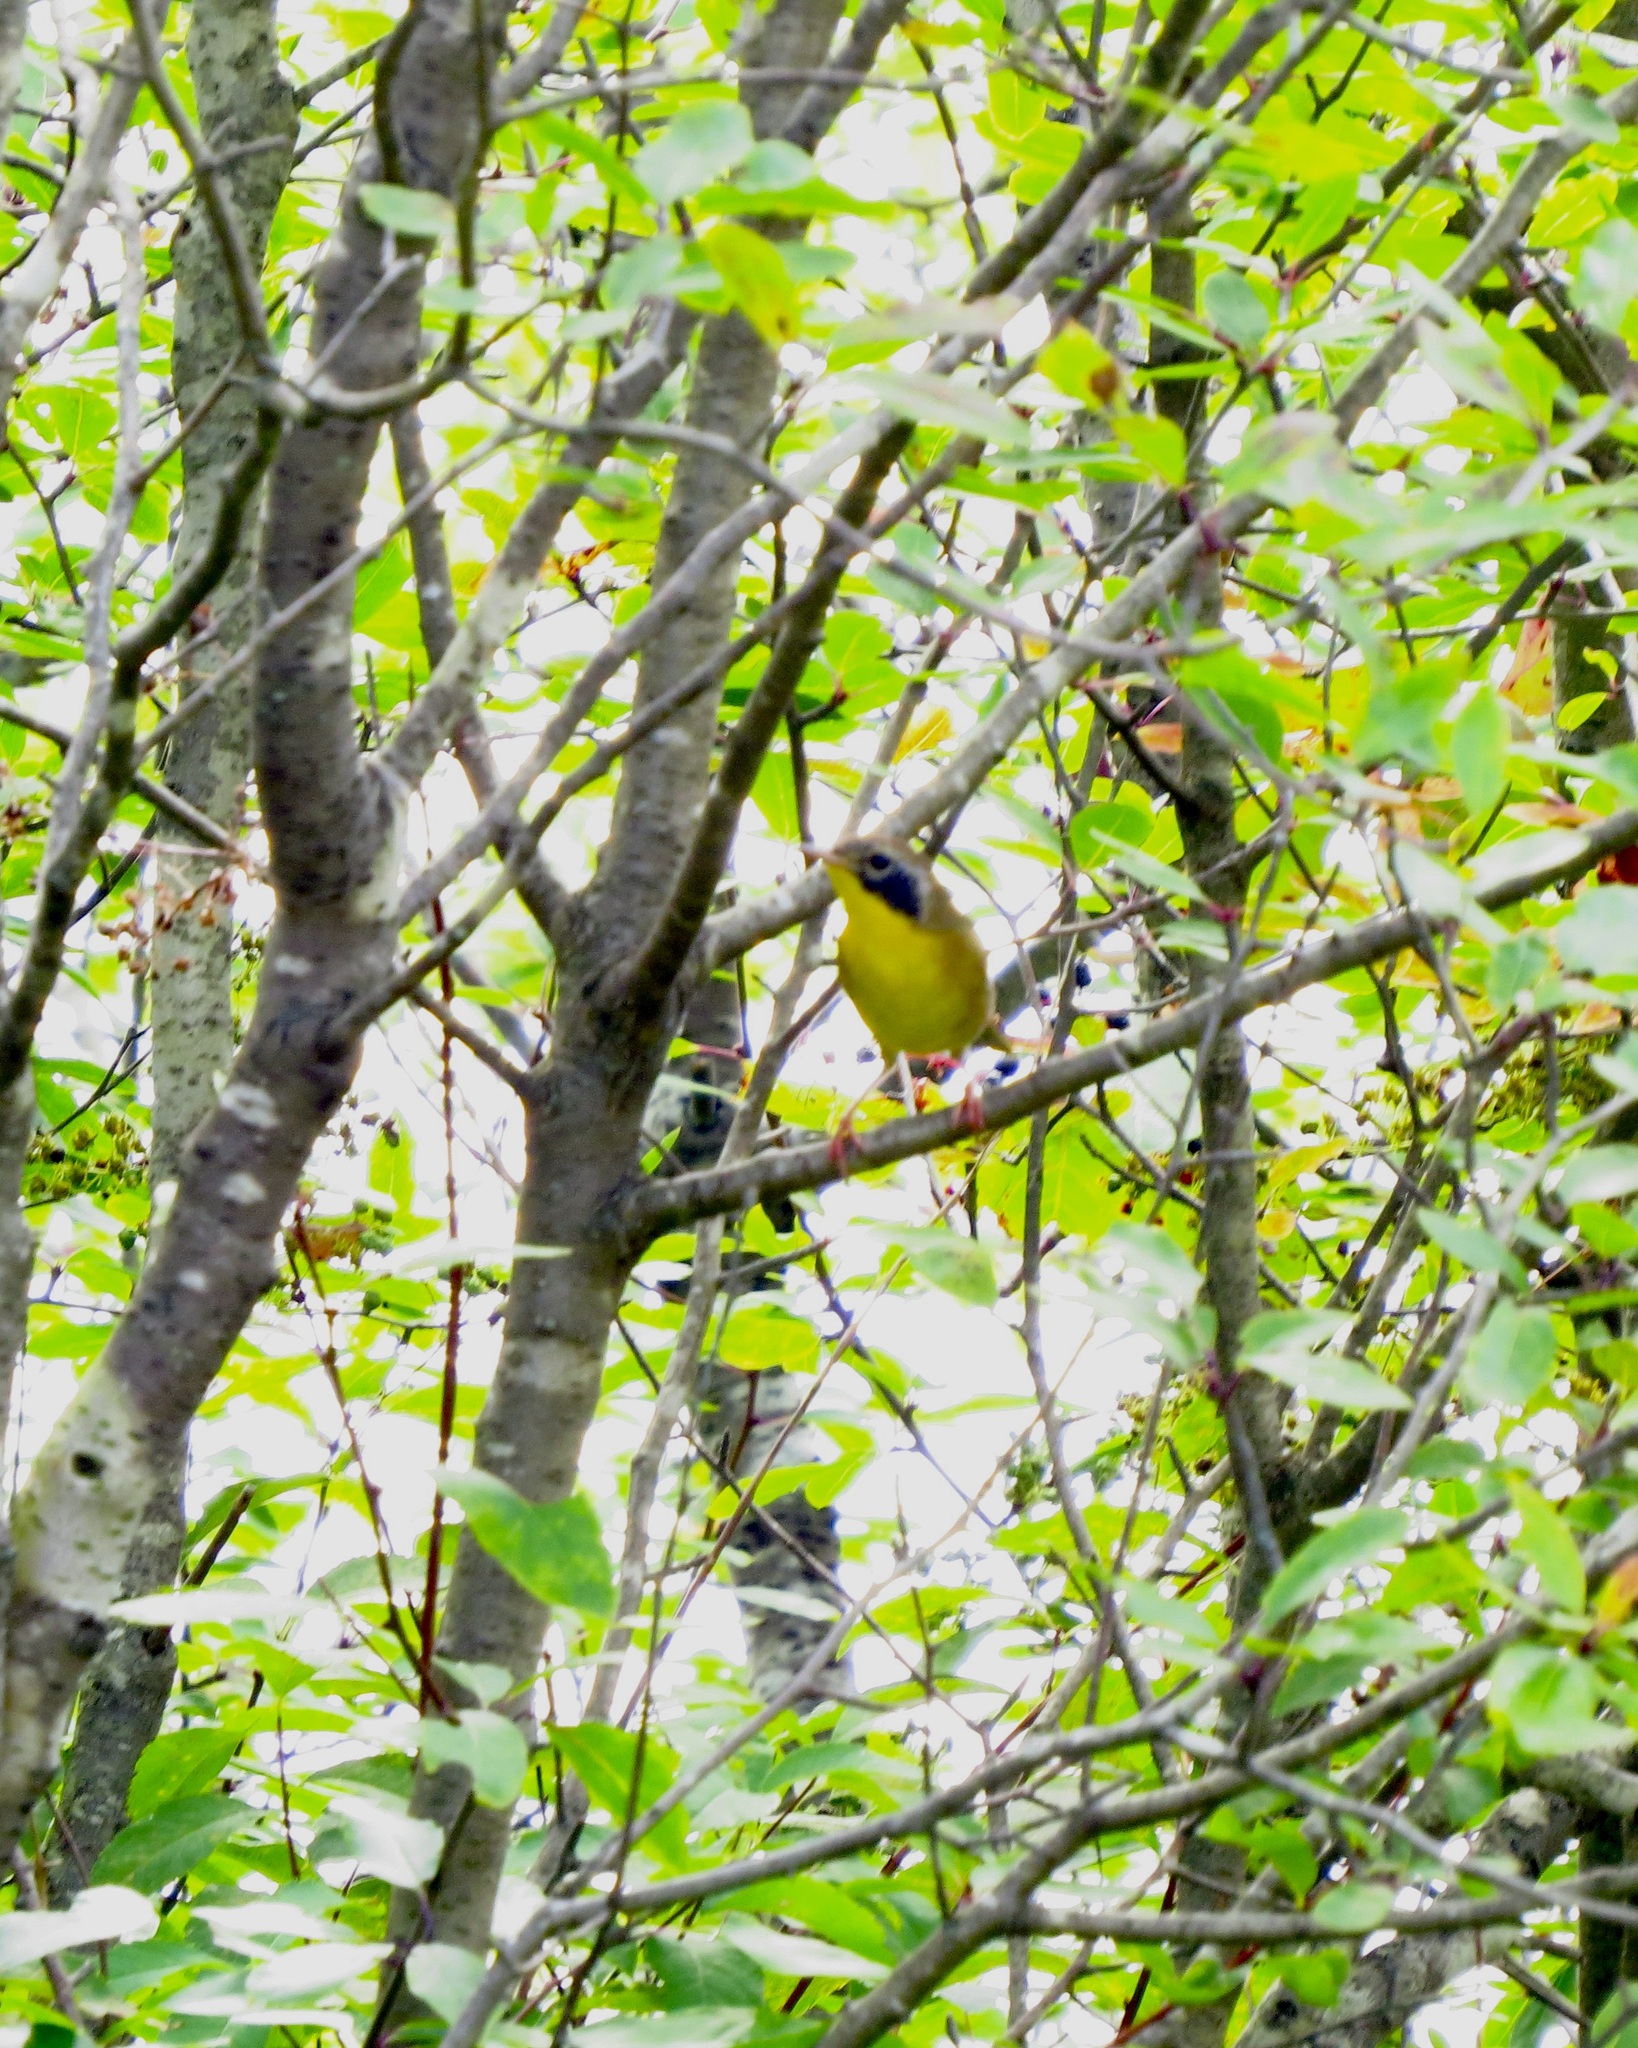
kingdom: Animalia
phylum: Chordata
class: Aves
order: Passeriformes
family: Parulidae
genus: Geothlypis
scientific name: Geothlypis trichas
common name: Common yellowthroat
